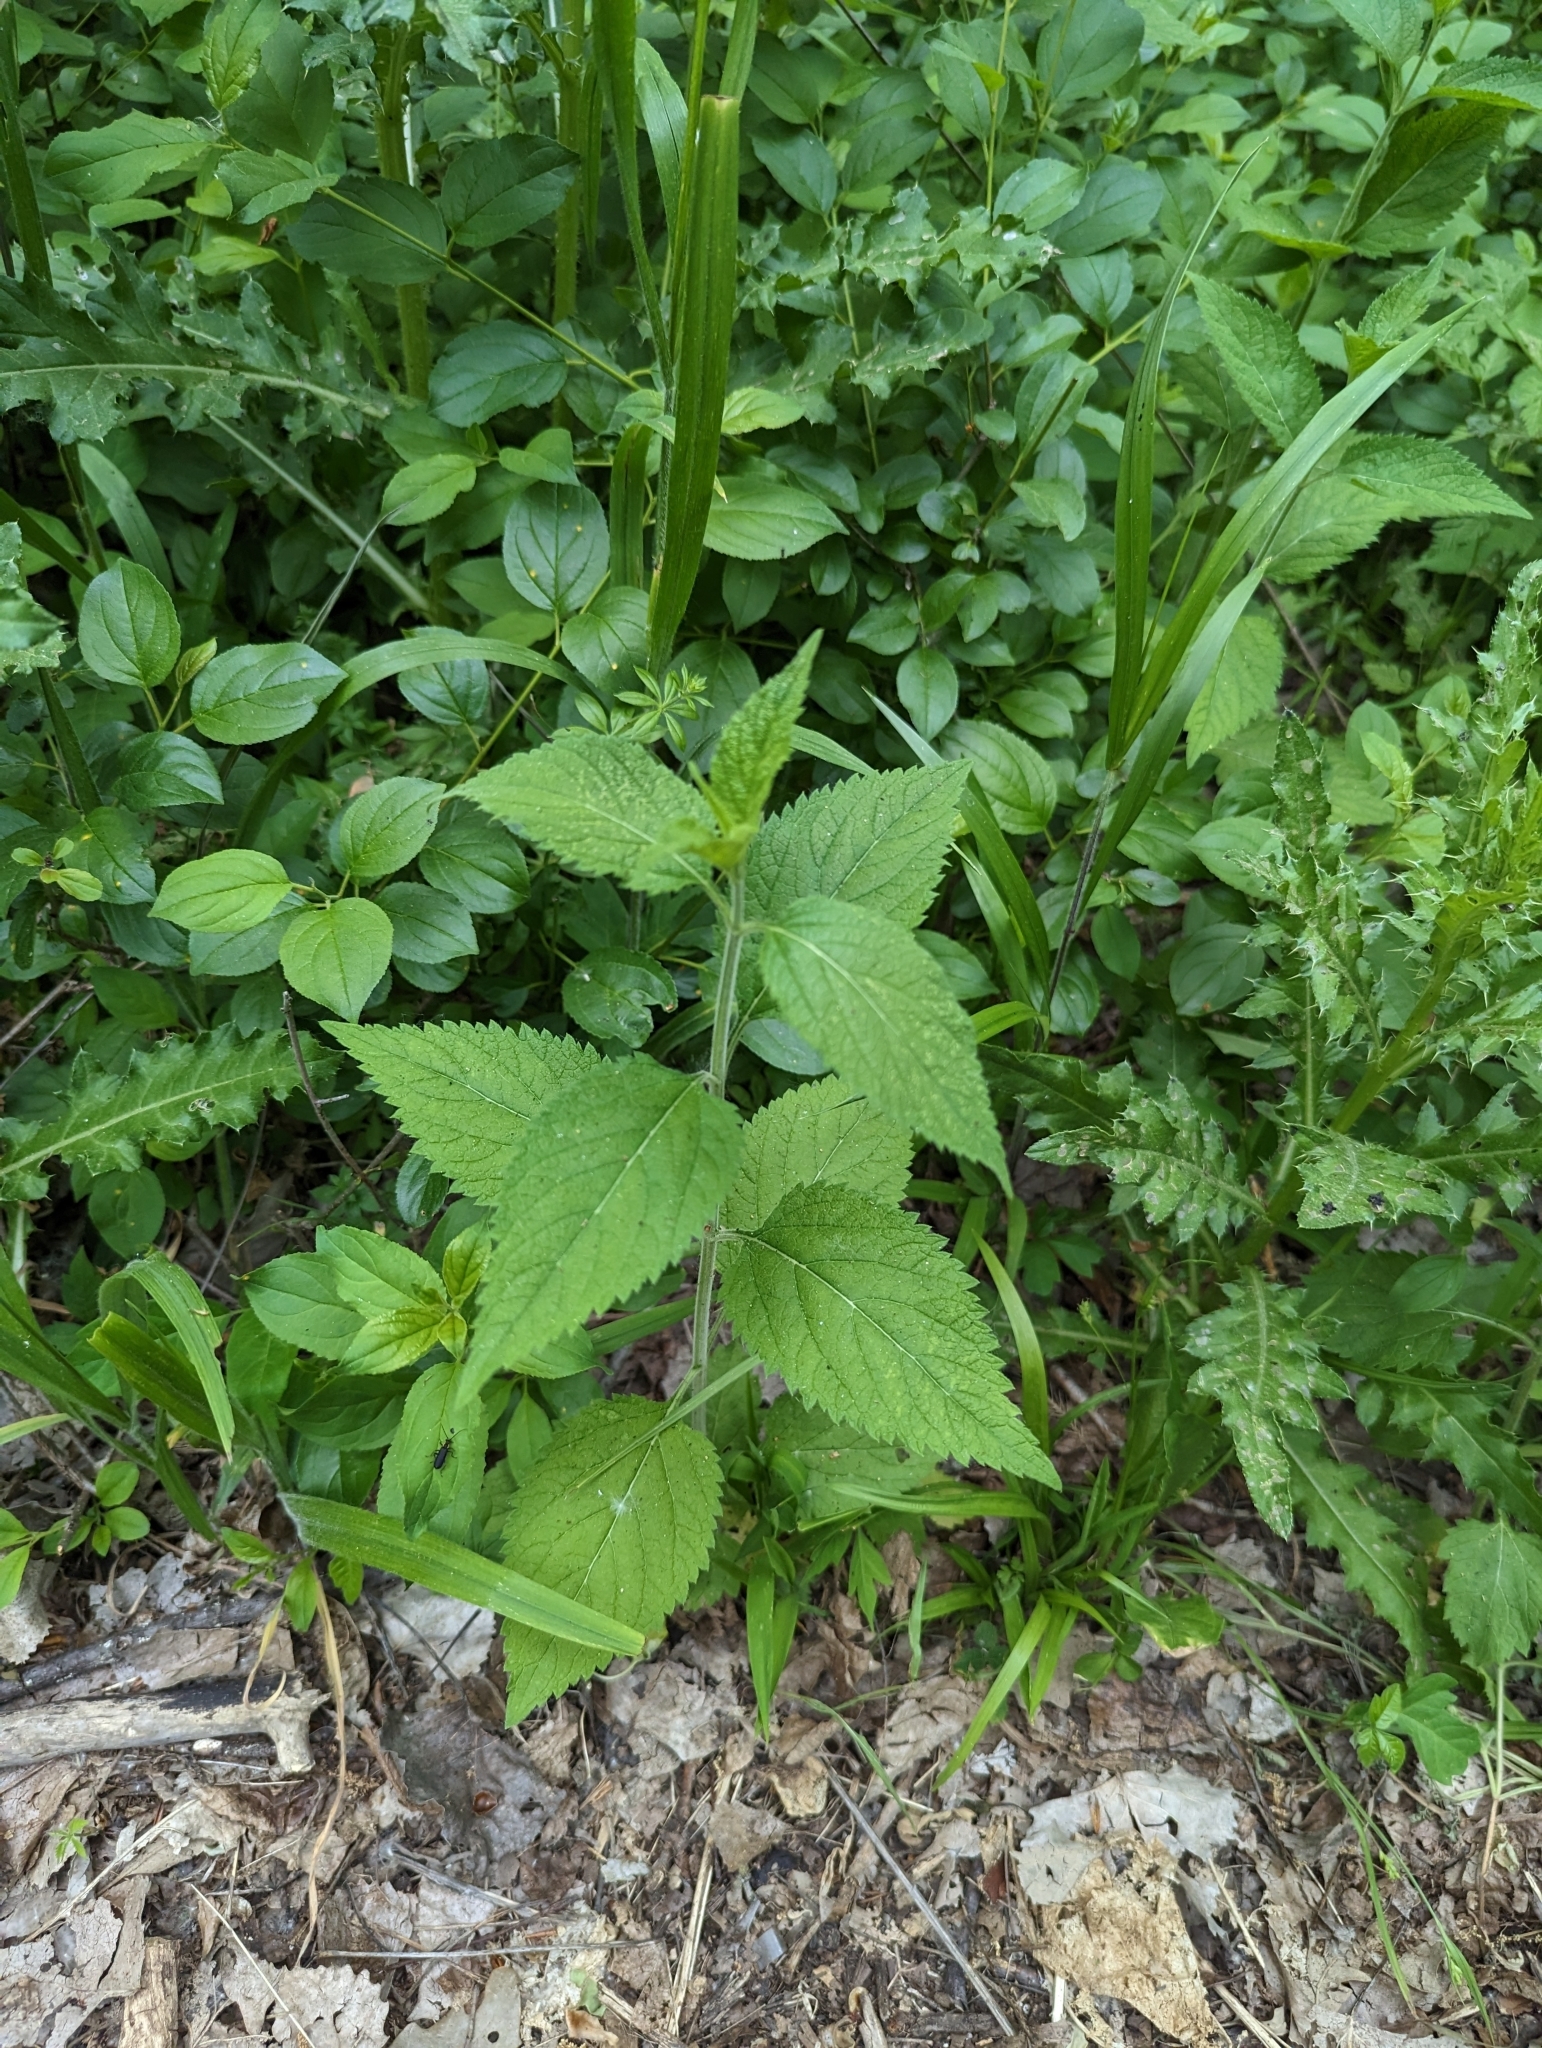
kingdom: Plantae
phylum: Tracheophyta
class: Magnoliopsida
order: Lamiales
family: Verbenaceae
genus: Verbena
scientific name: Verbena urticifolia
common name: Nettle-leaved vervain
